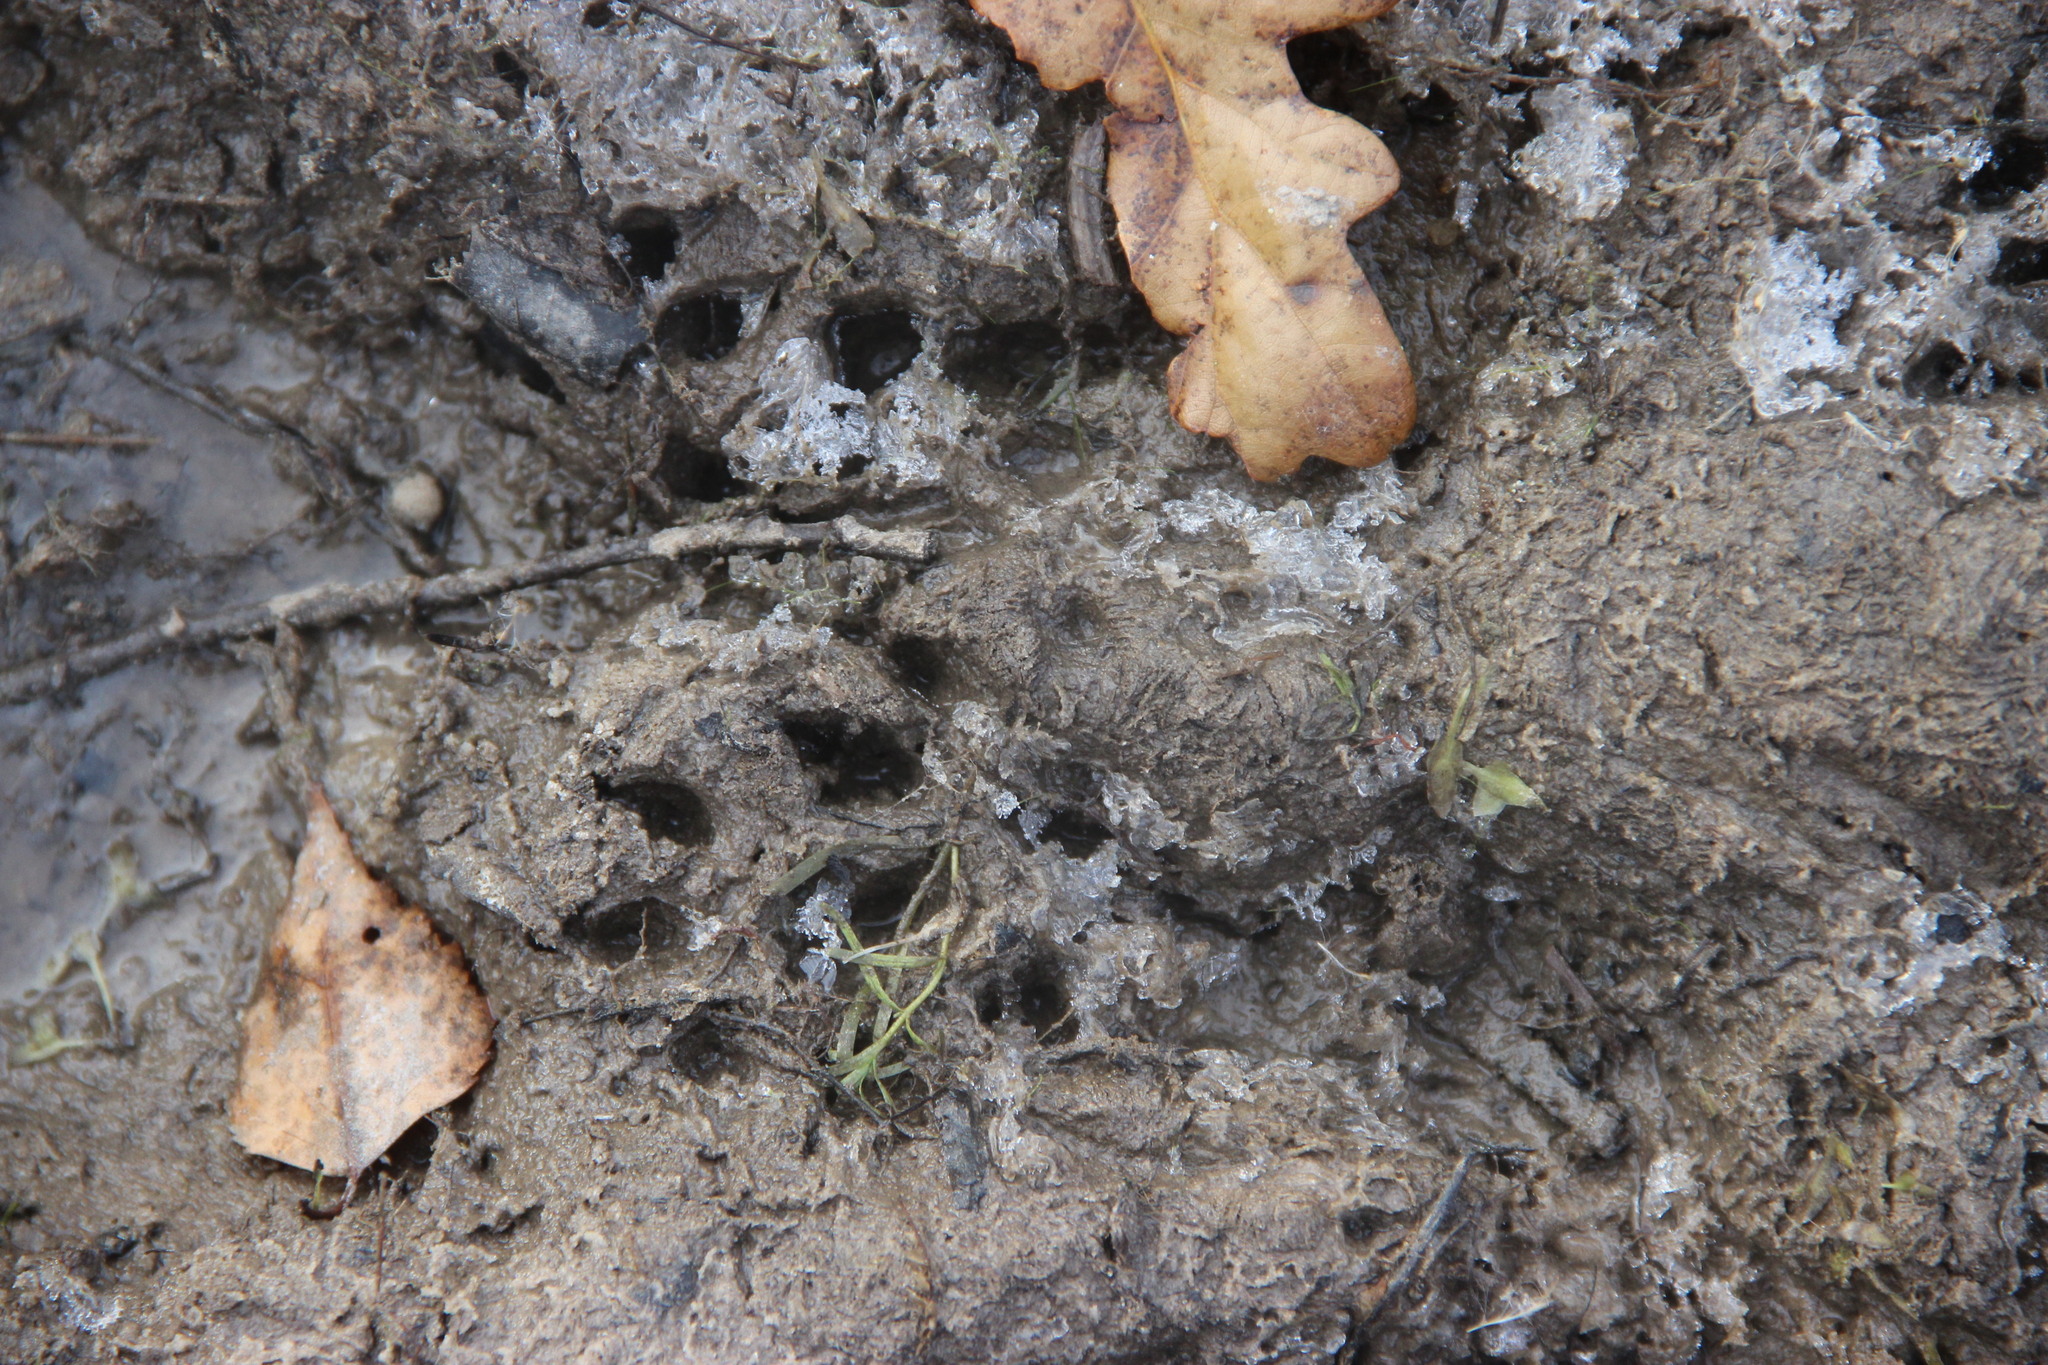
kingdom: Animalia
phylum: Chordata
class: Mammalia
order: Carnivora
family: Mustelidae
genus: Lutra
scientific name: Lutra lutra
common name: European otter
